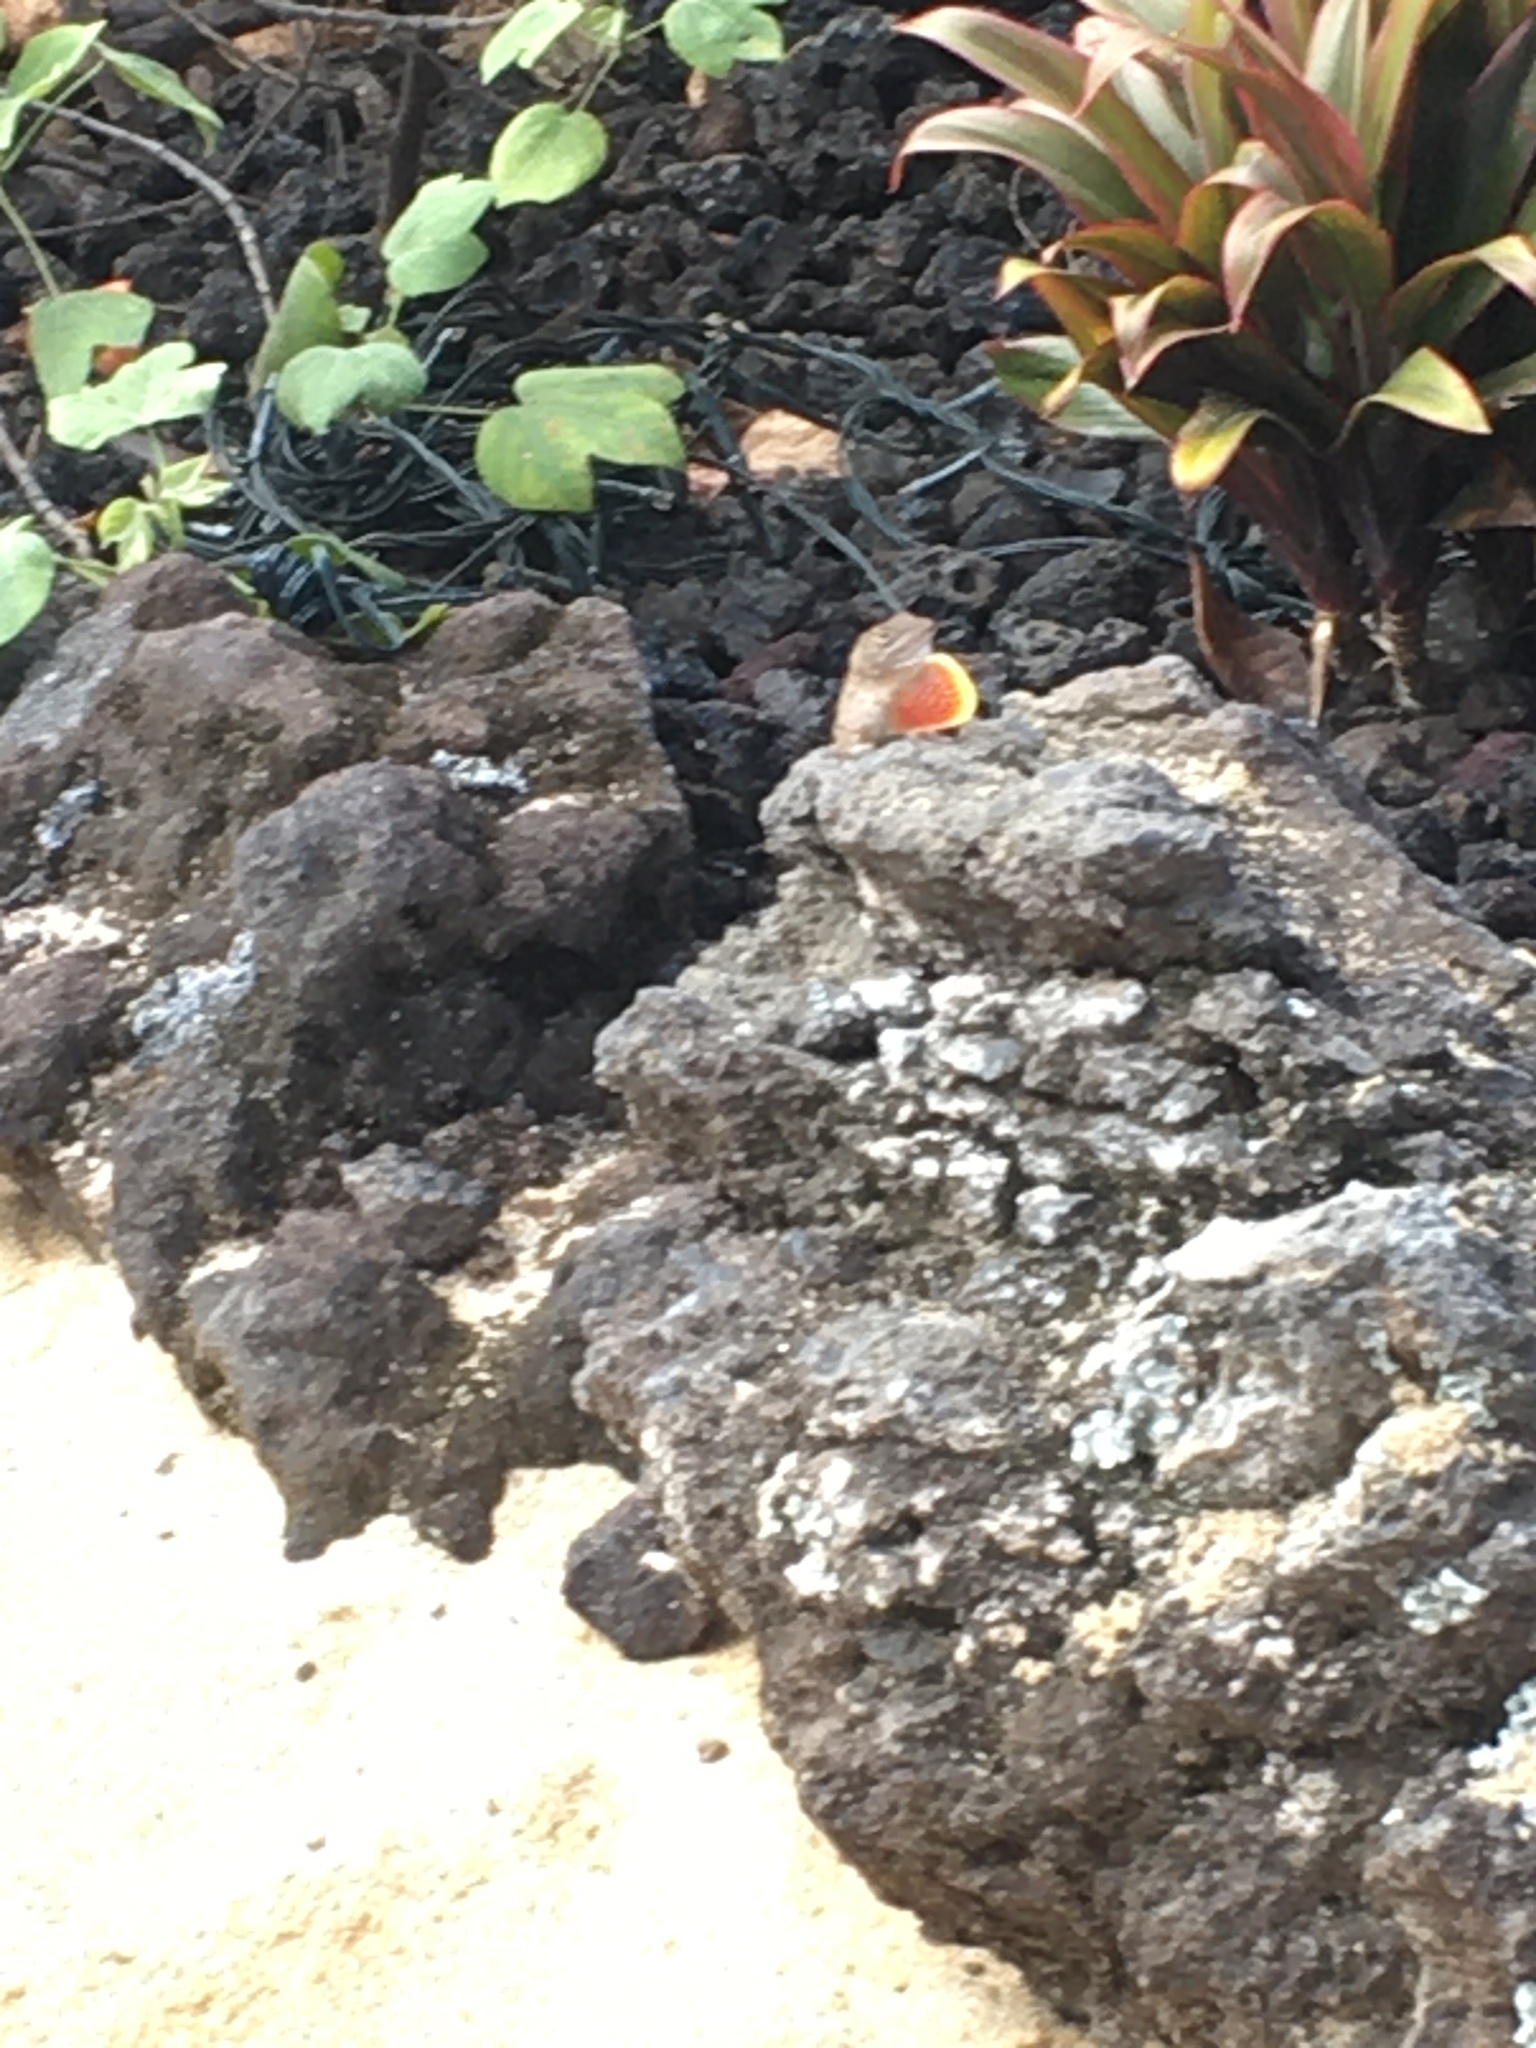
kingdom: Animalia
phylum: Chordata
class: Squamata
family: Dactyloidae
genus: Anolis
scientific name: Anolis sagrei
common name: Brown anole
